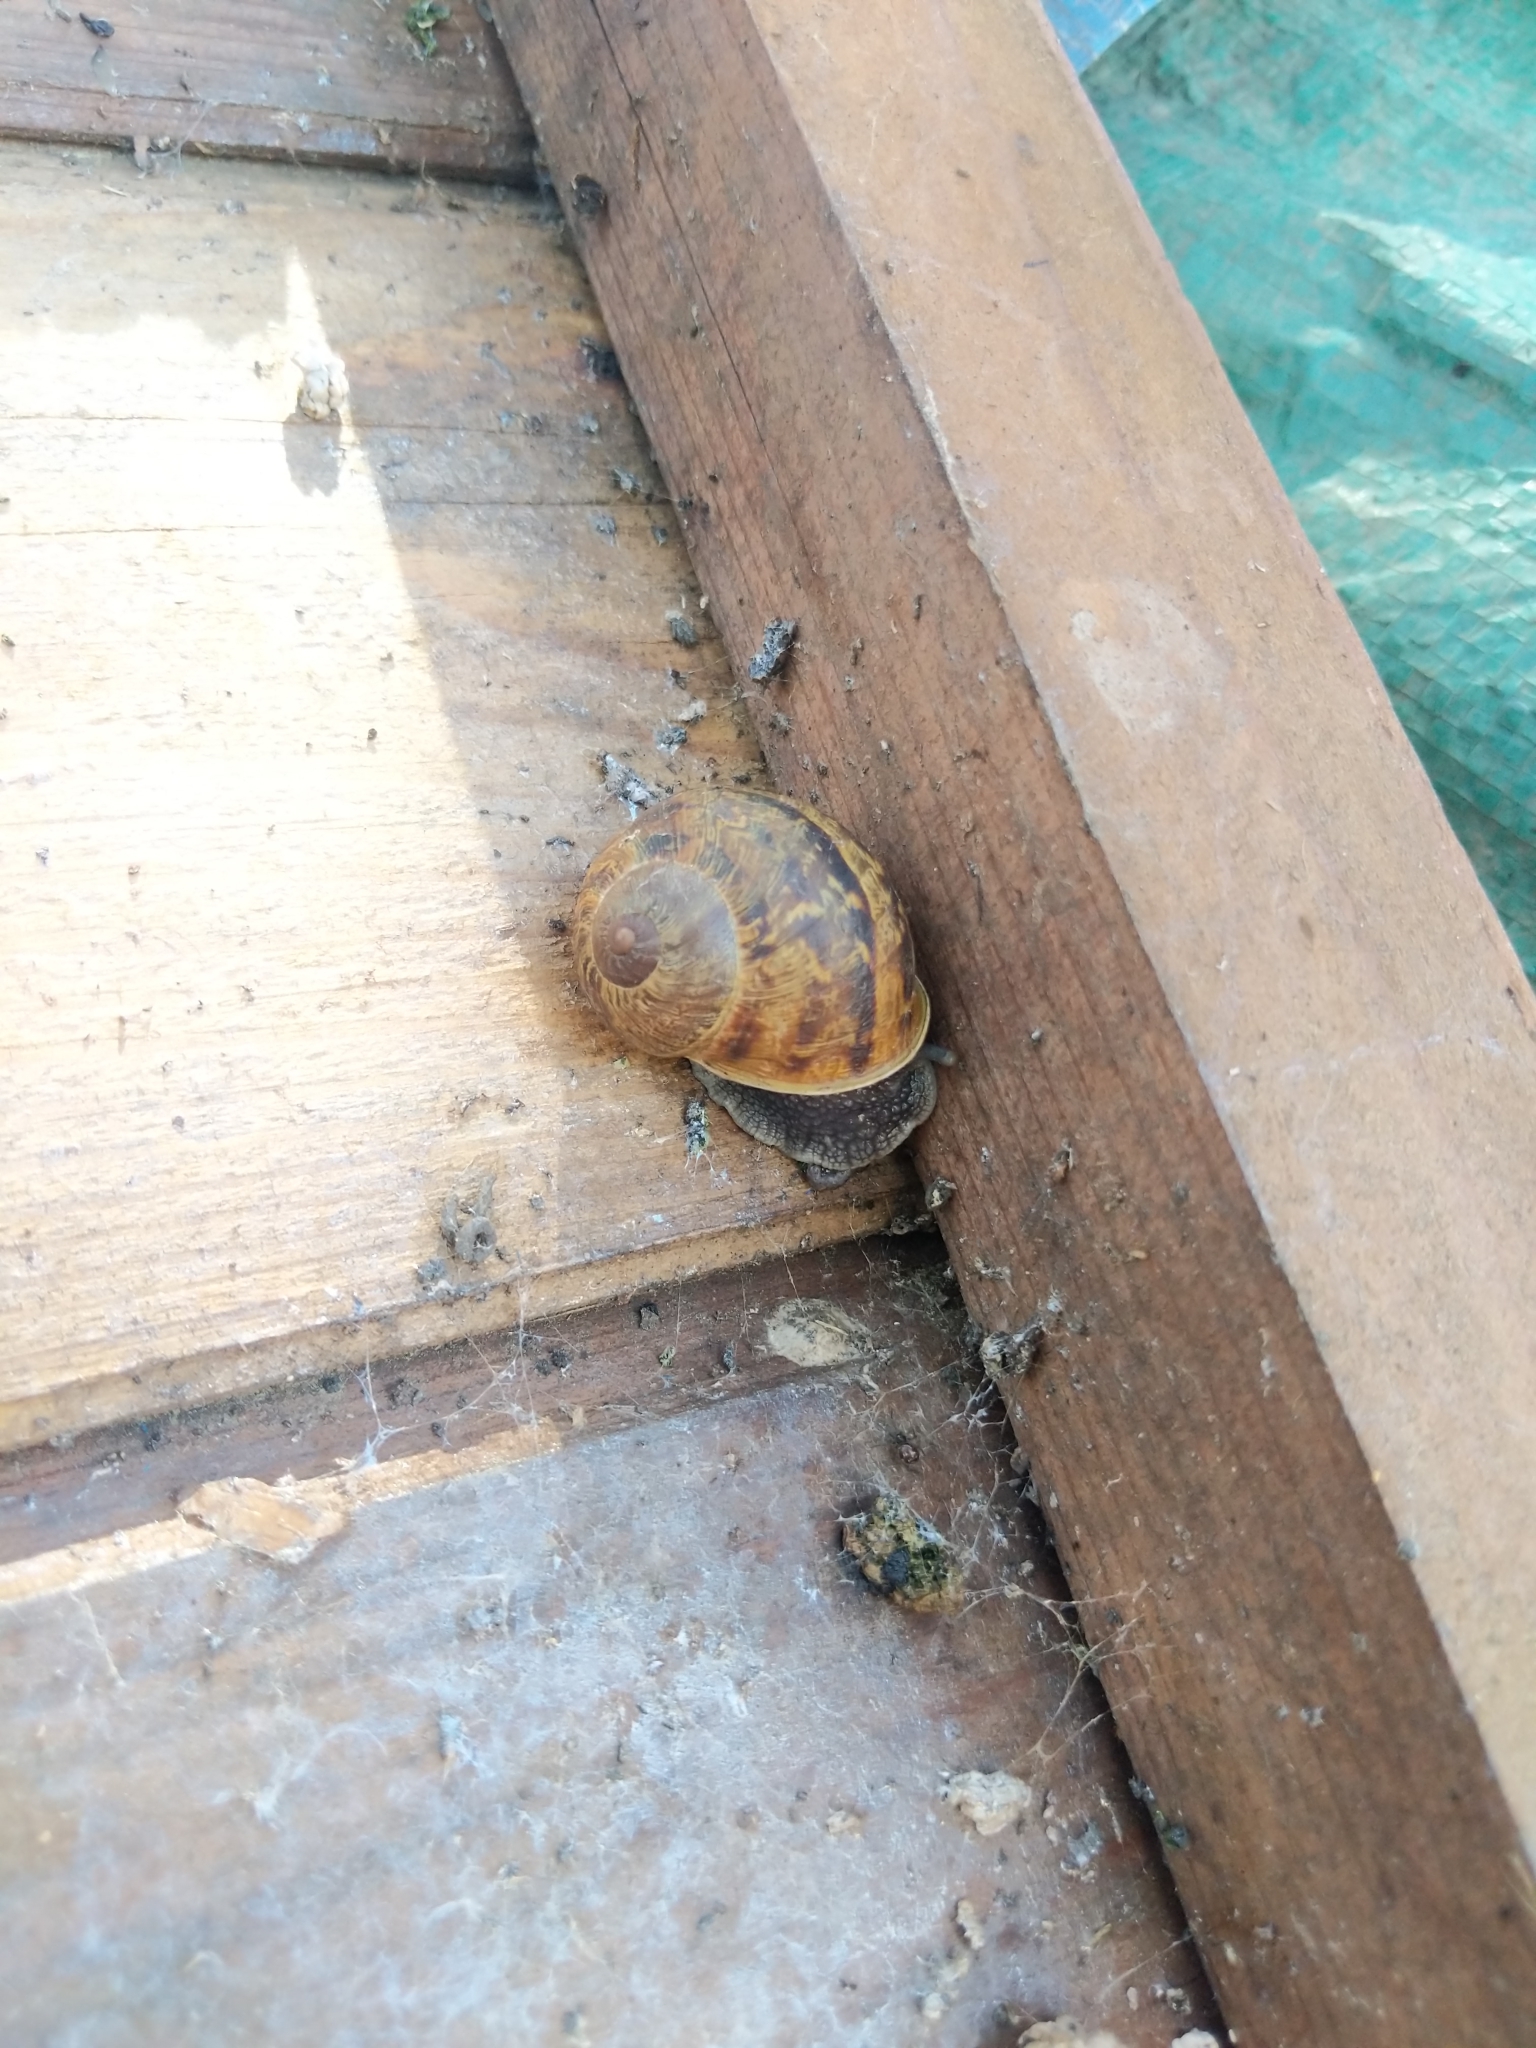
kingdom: Animalia
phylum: Mollusca
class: Gastropoda
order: Stylommatophora
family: Helicidae
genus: Cornu
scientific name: Cornu aspersum
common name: Brown garden snail
